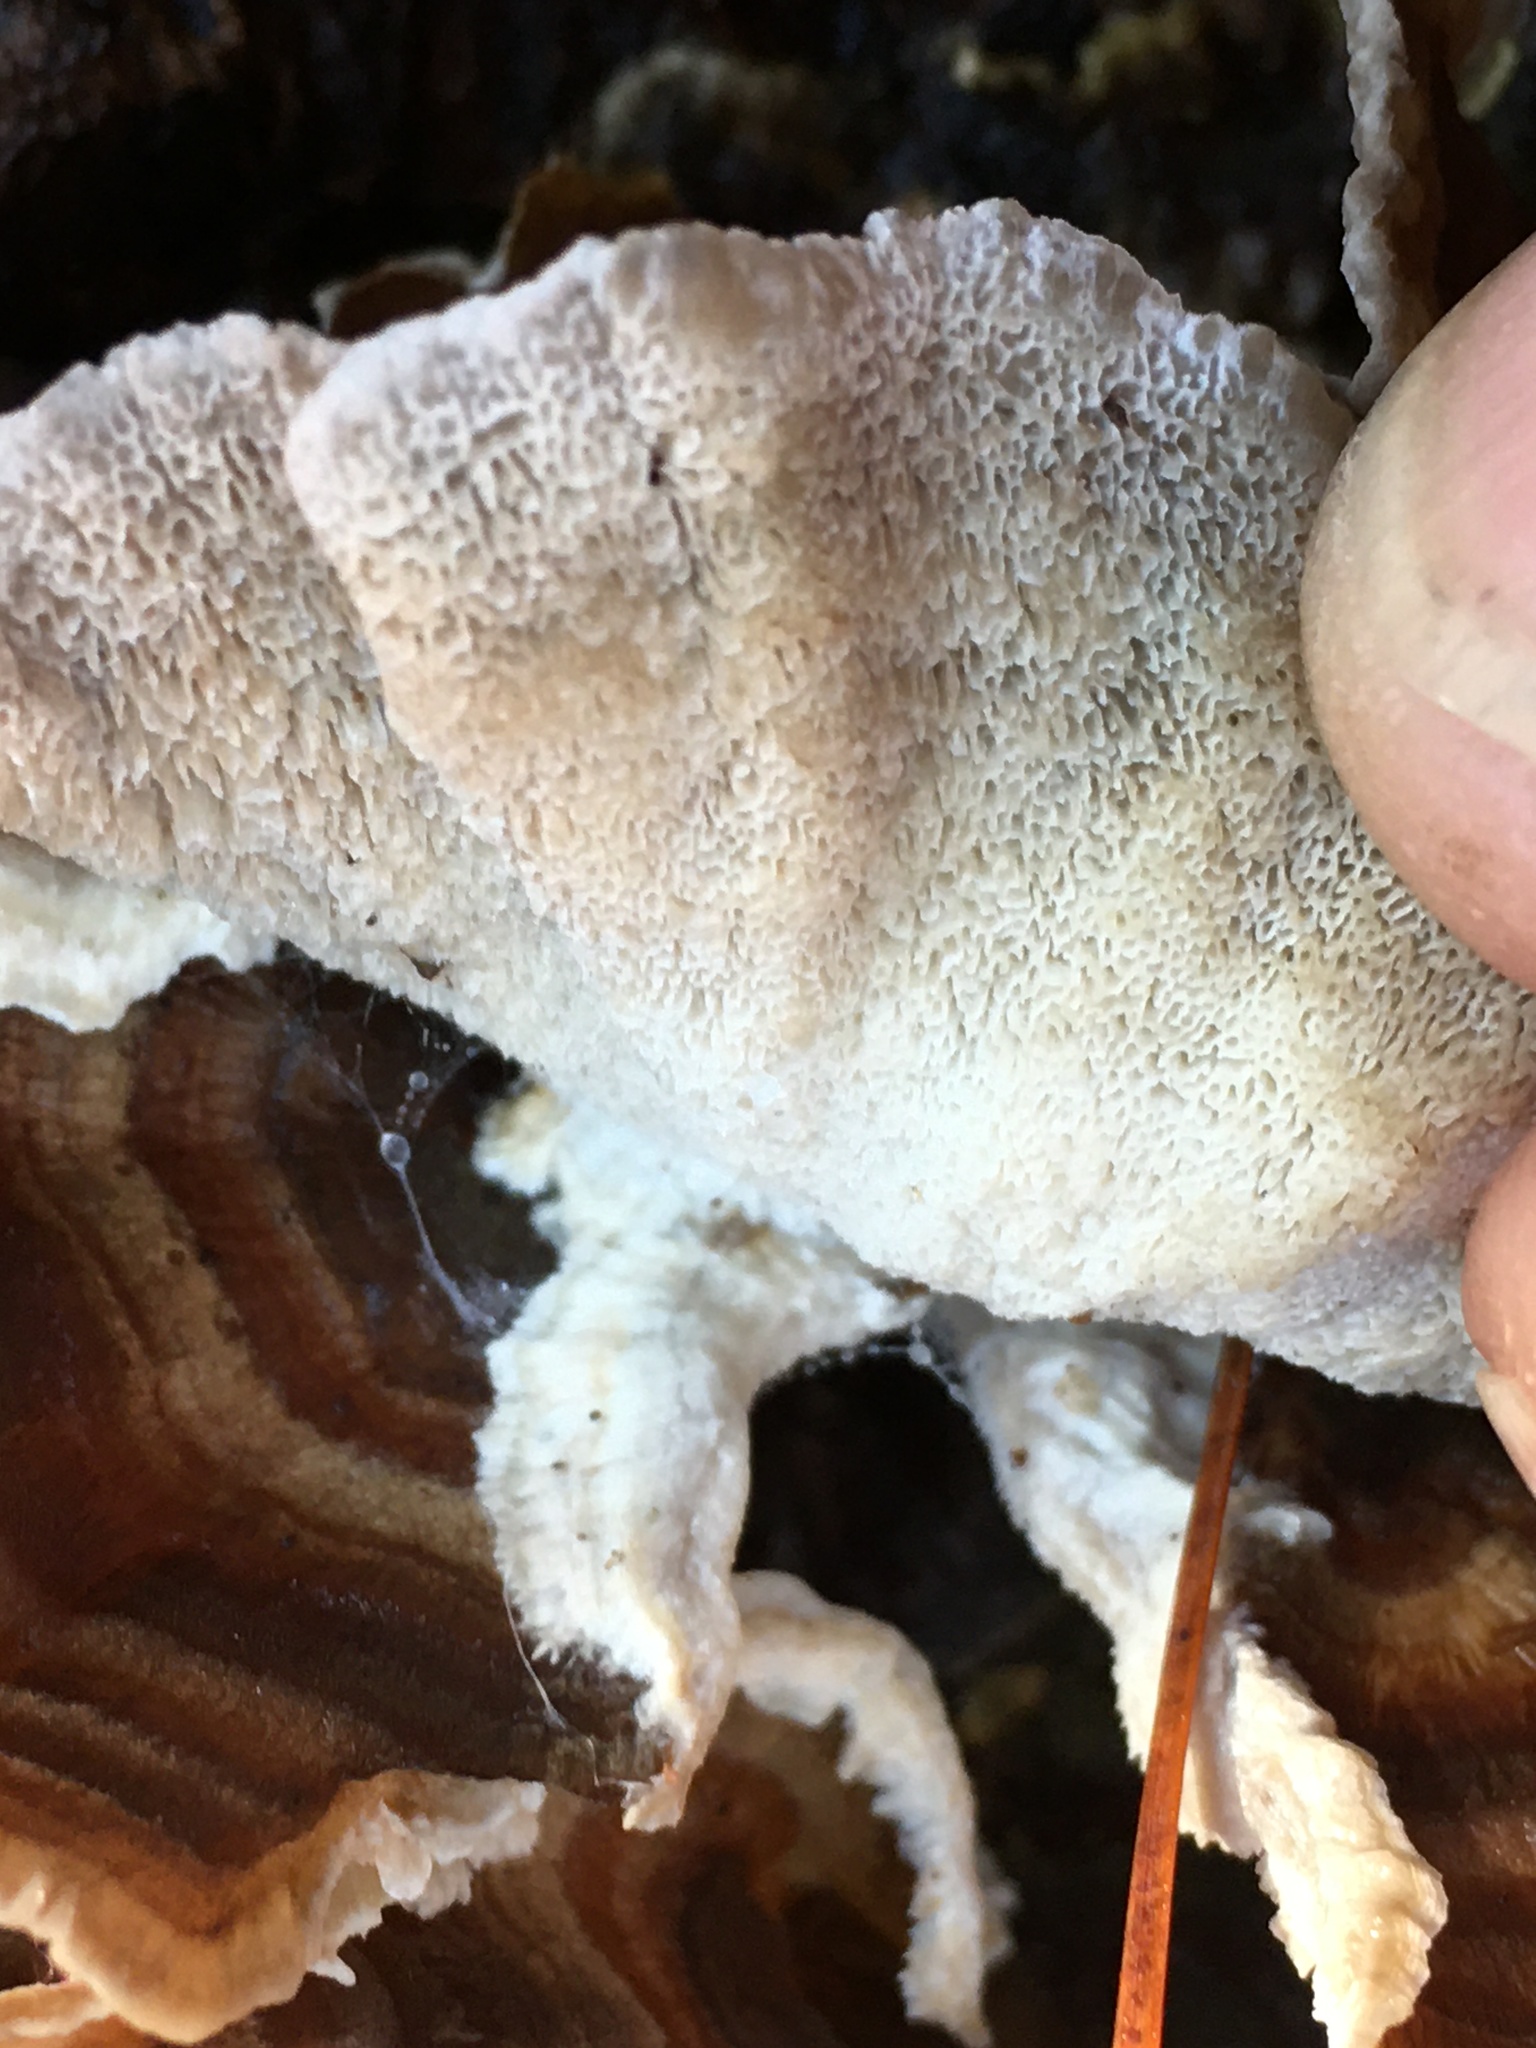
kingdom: Fungi
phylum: Basidiomycota
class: Agaricomycetes
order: Polyporales
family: Polyporaceae
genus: Trametes
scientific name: Trametes versicolor
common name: Turkeytail
